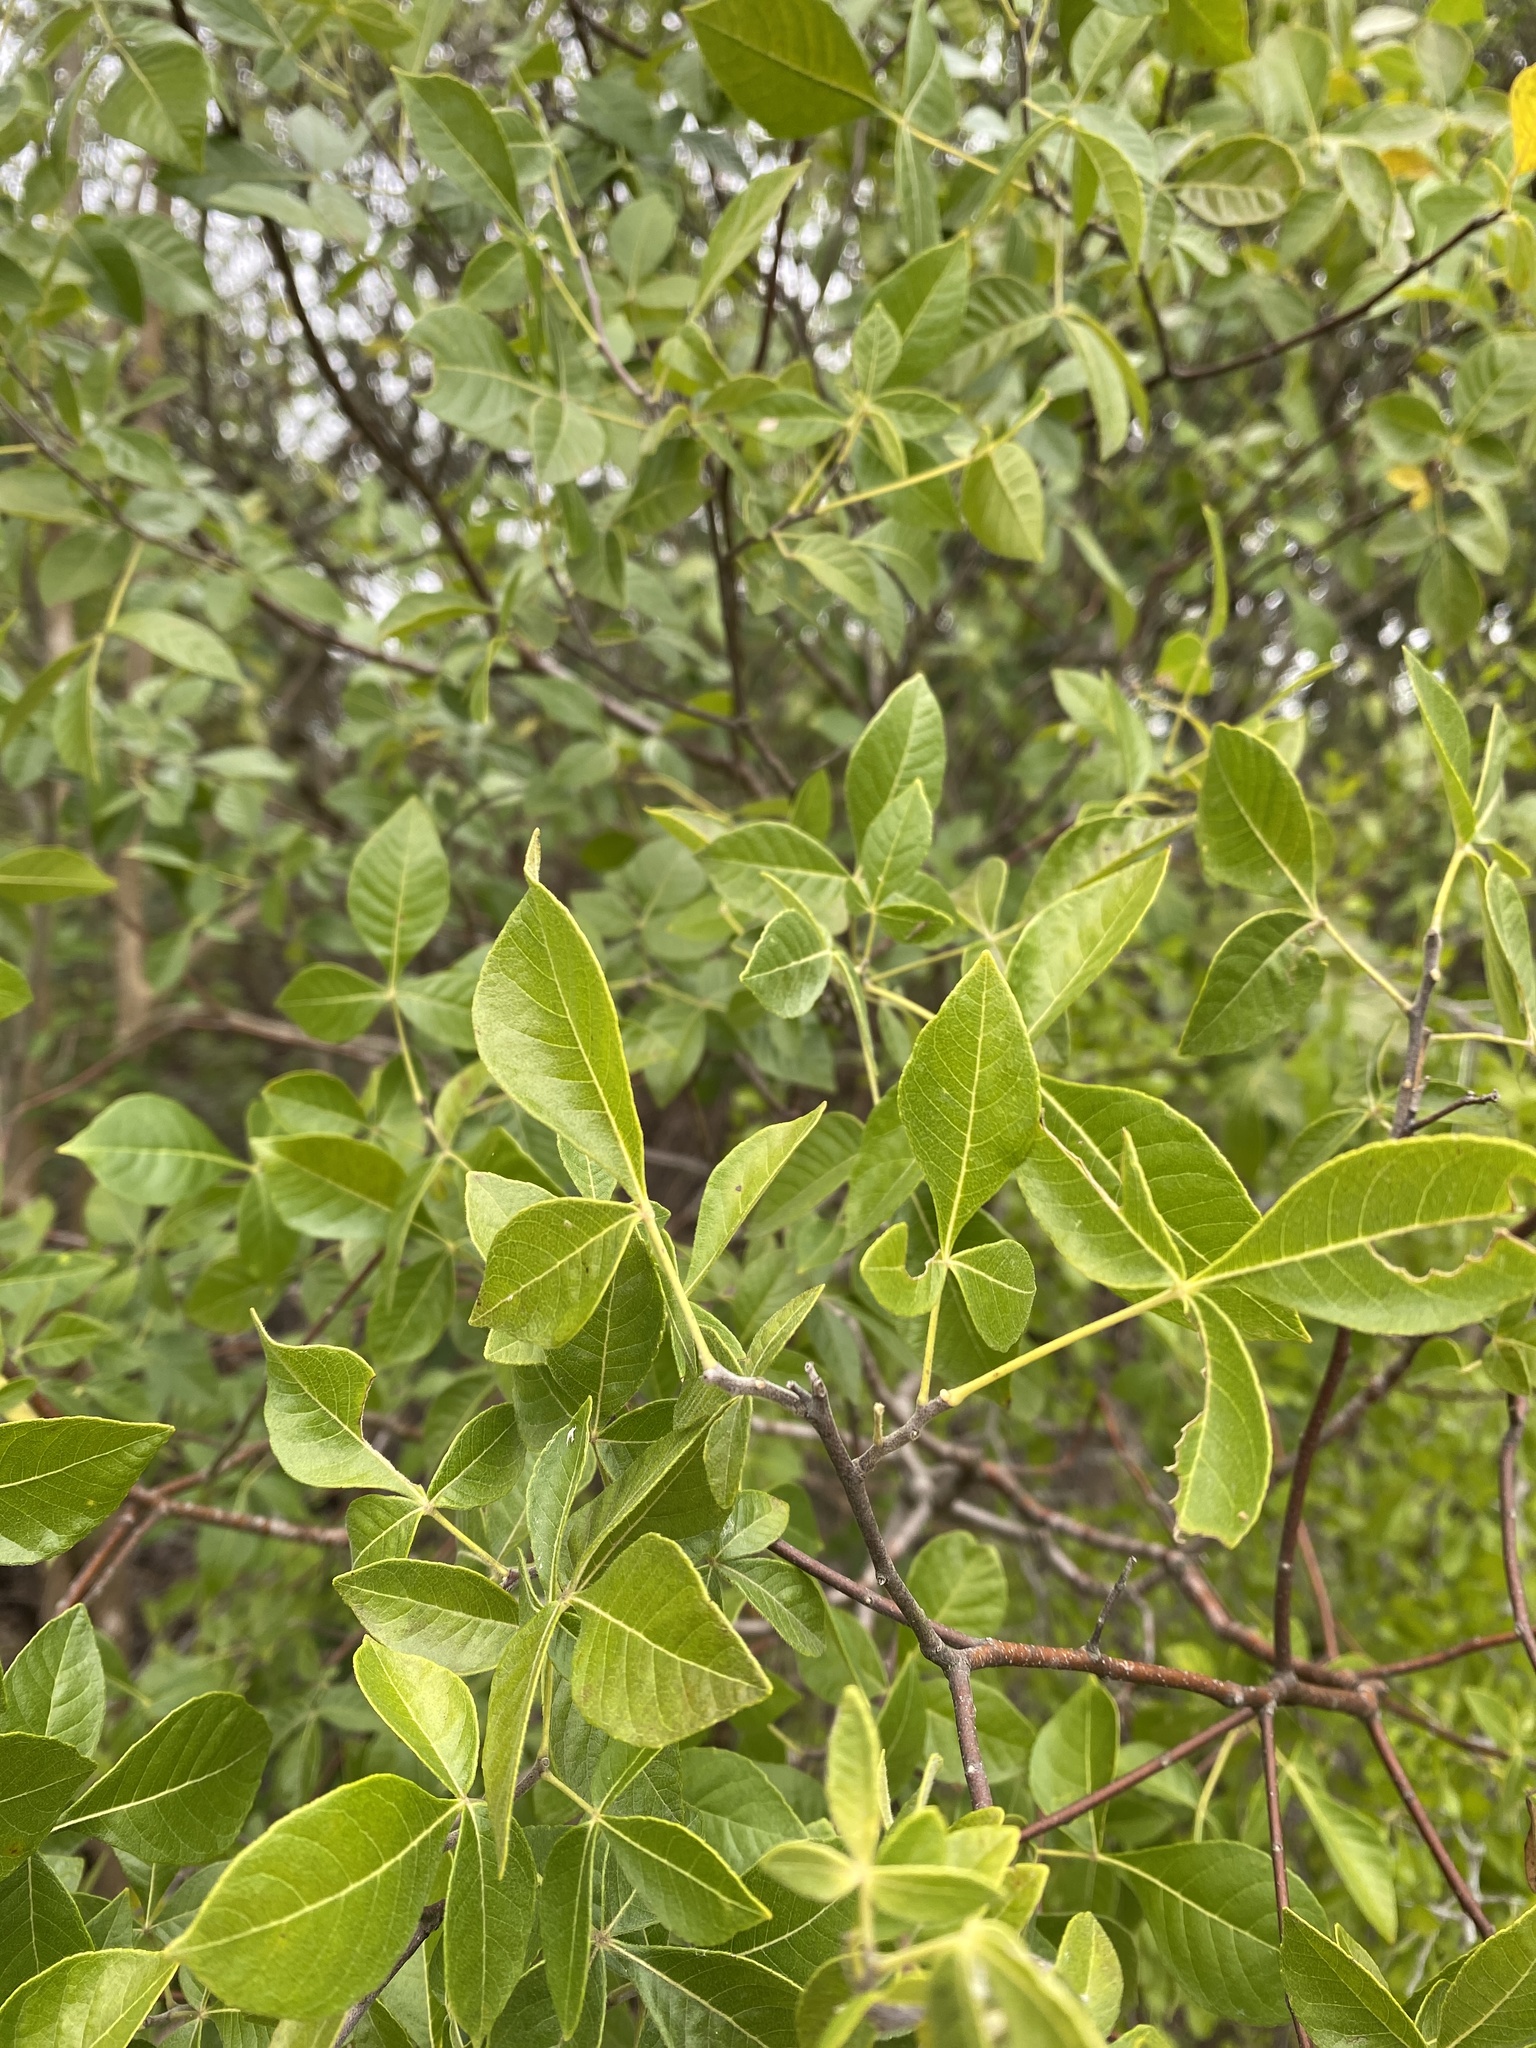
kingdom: Plantae
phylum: Tracheophyta
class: Magnoliopsida
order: Sapindales
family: Rutaceae
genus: Ptelea
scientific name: Ptelea trifoliata
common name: Common hop-tree
